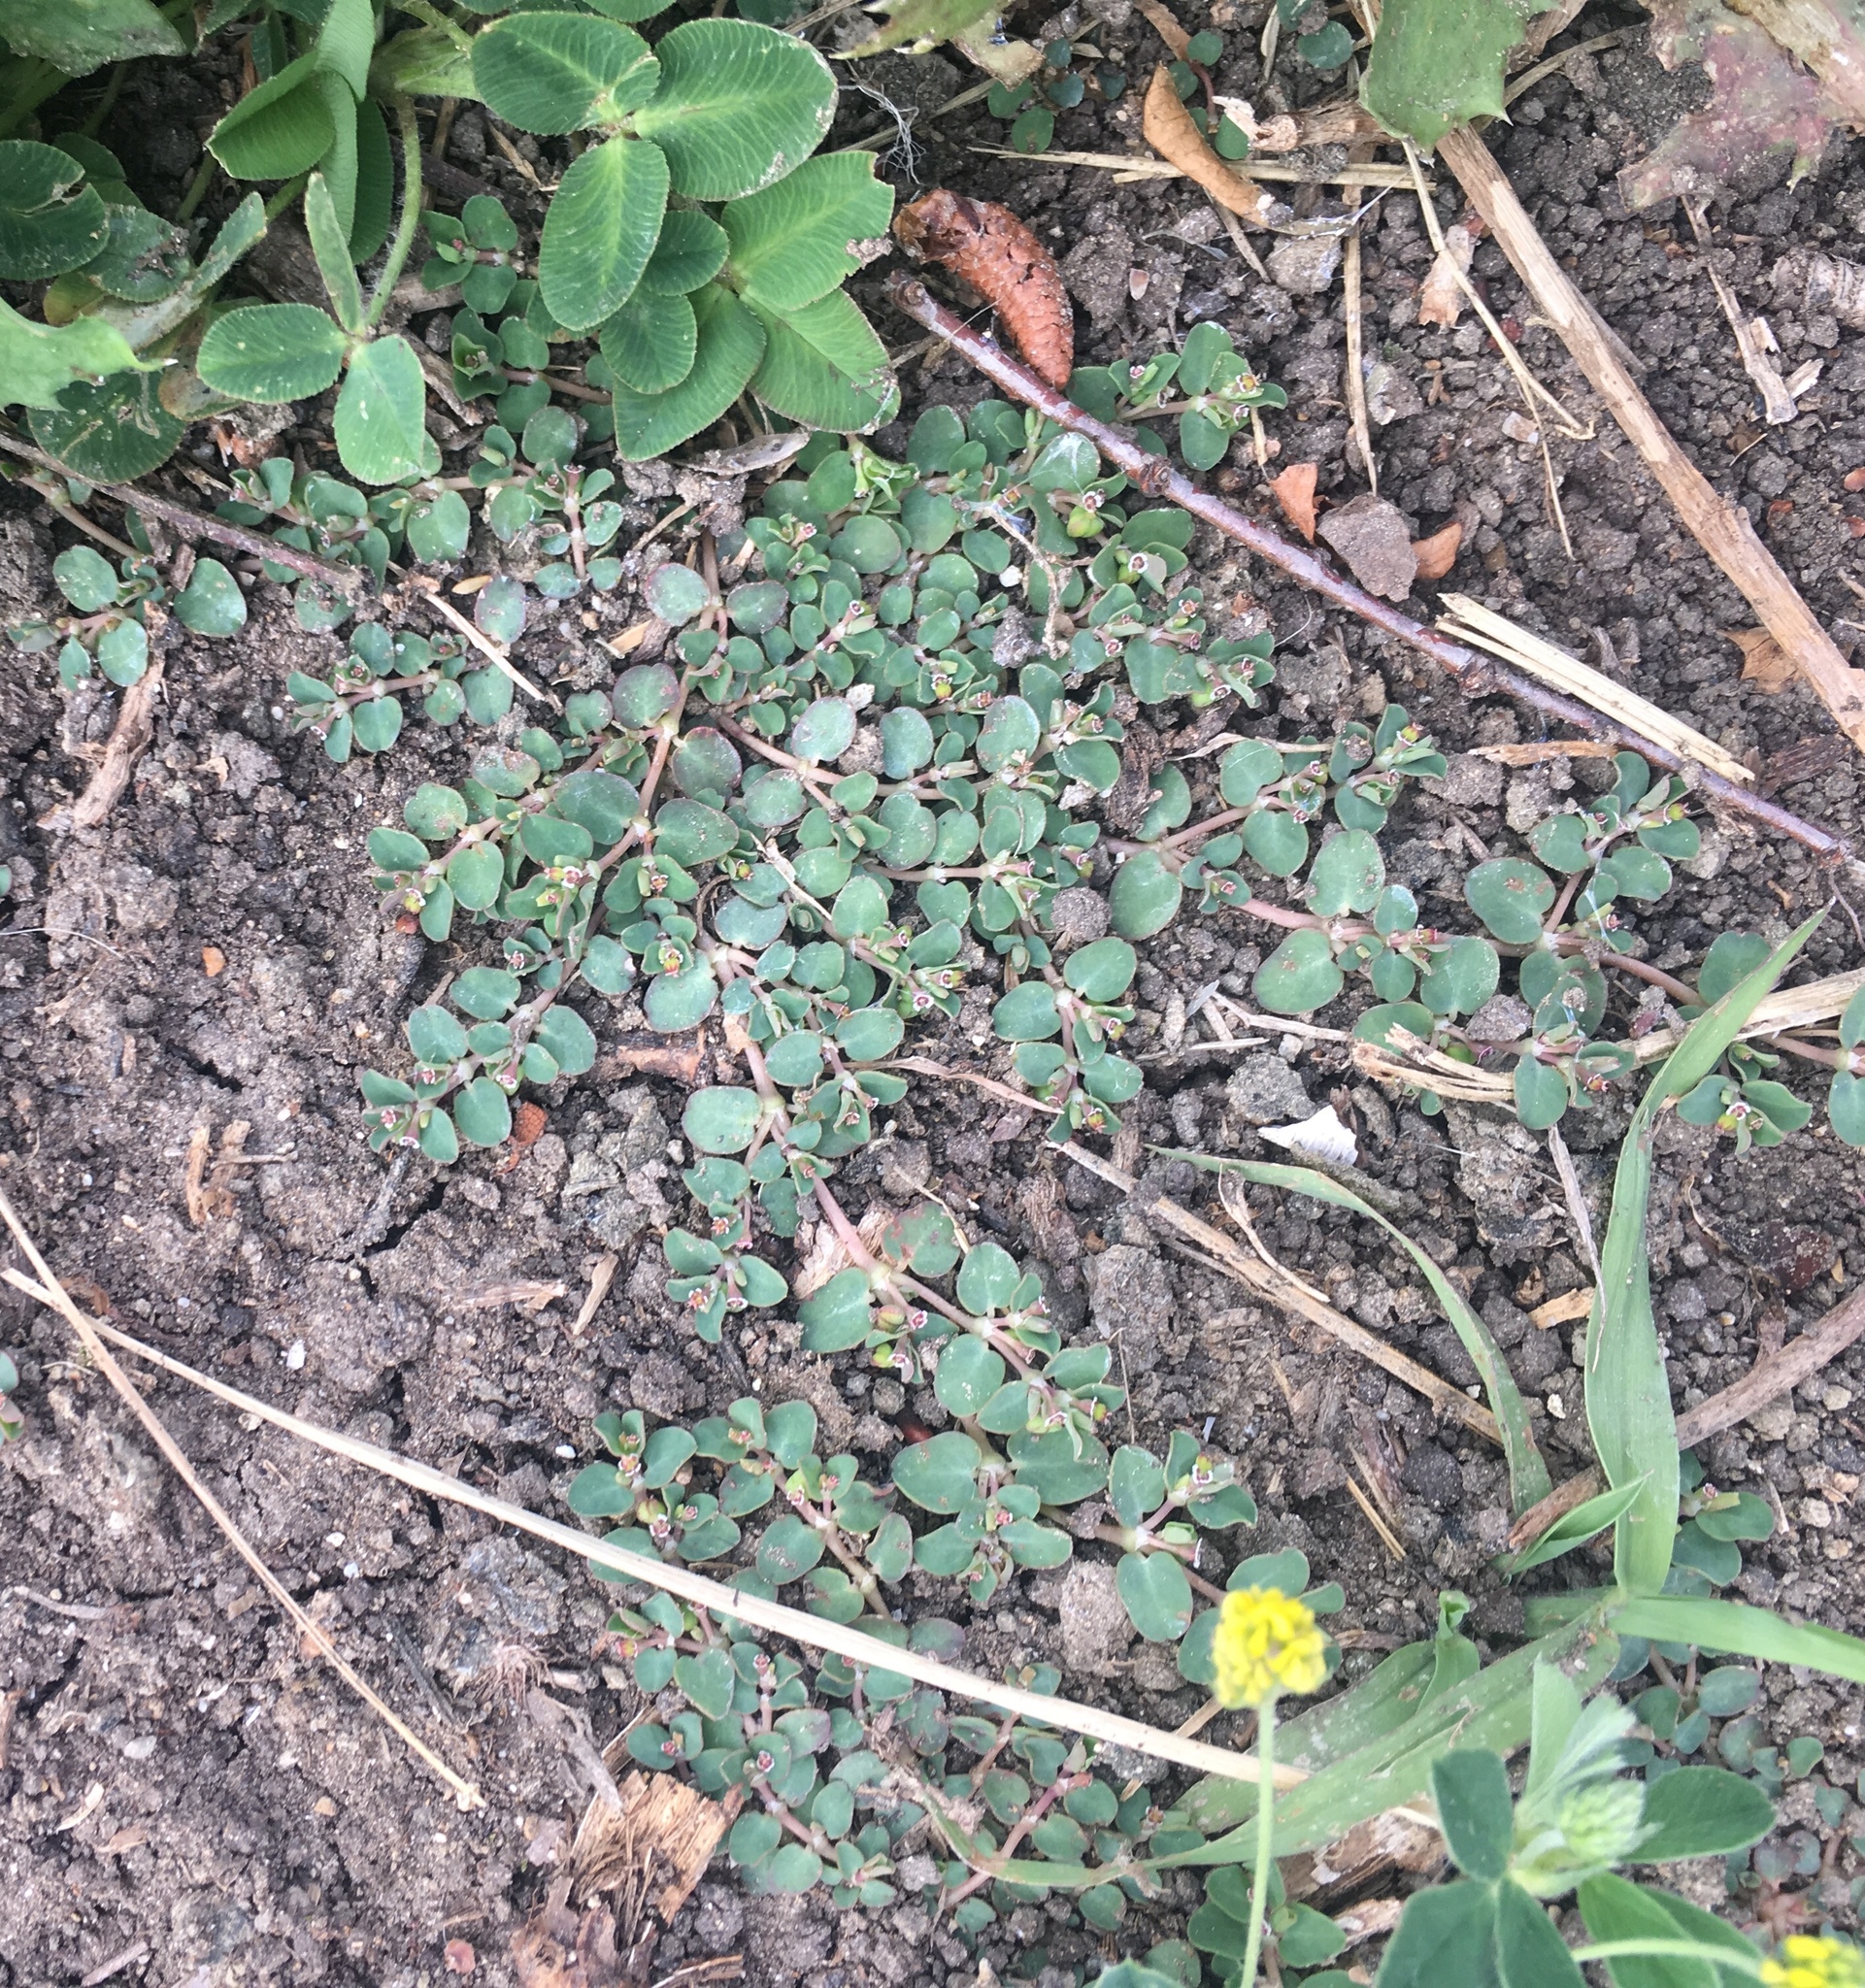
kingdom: Plantae
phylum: Tracheophyta
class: Magnoliopsida
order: Malpighiales
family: Euphorbiaceae
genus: Euphorbia
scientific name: Euphorbia serpens
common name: Matted sandmat
